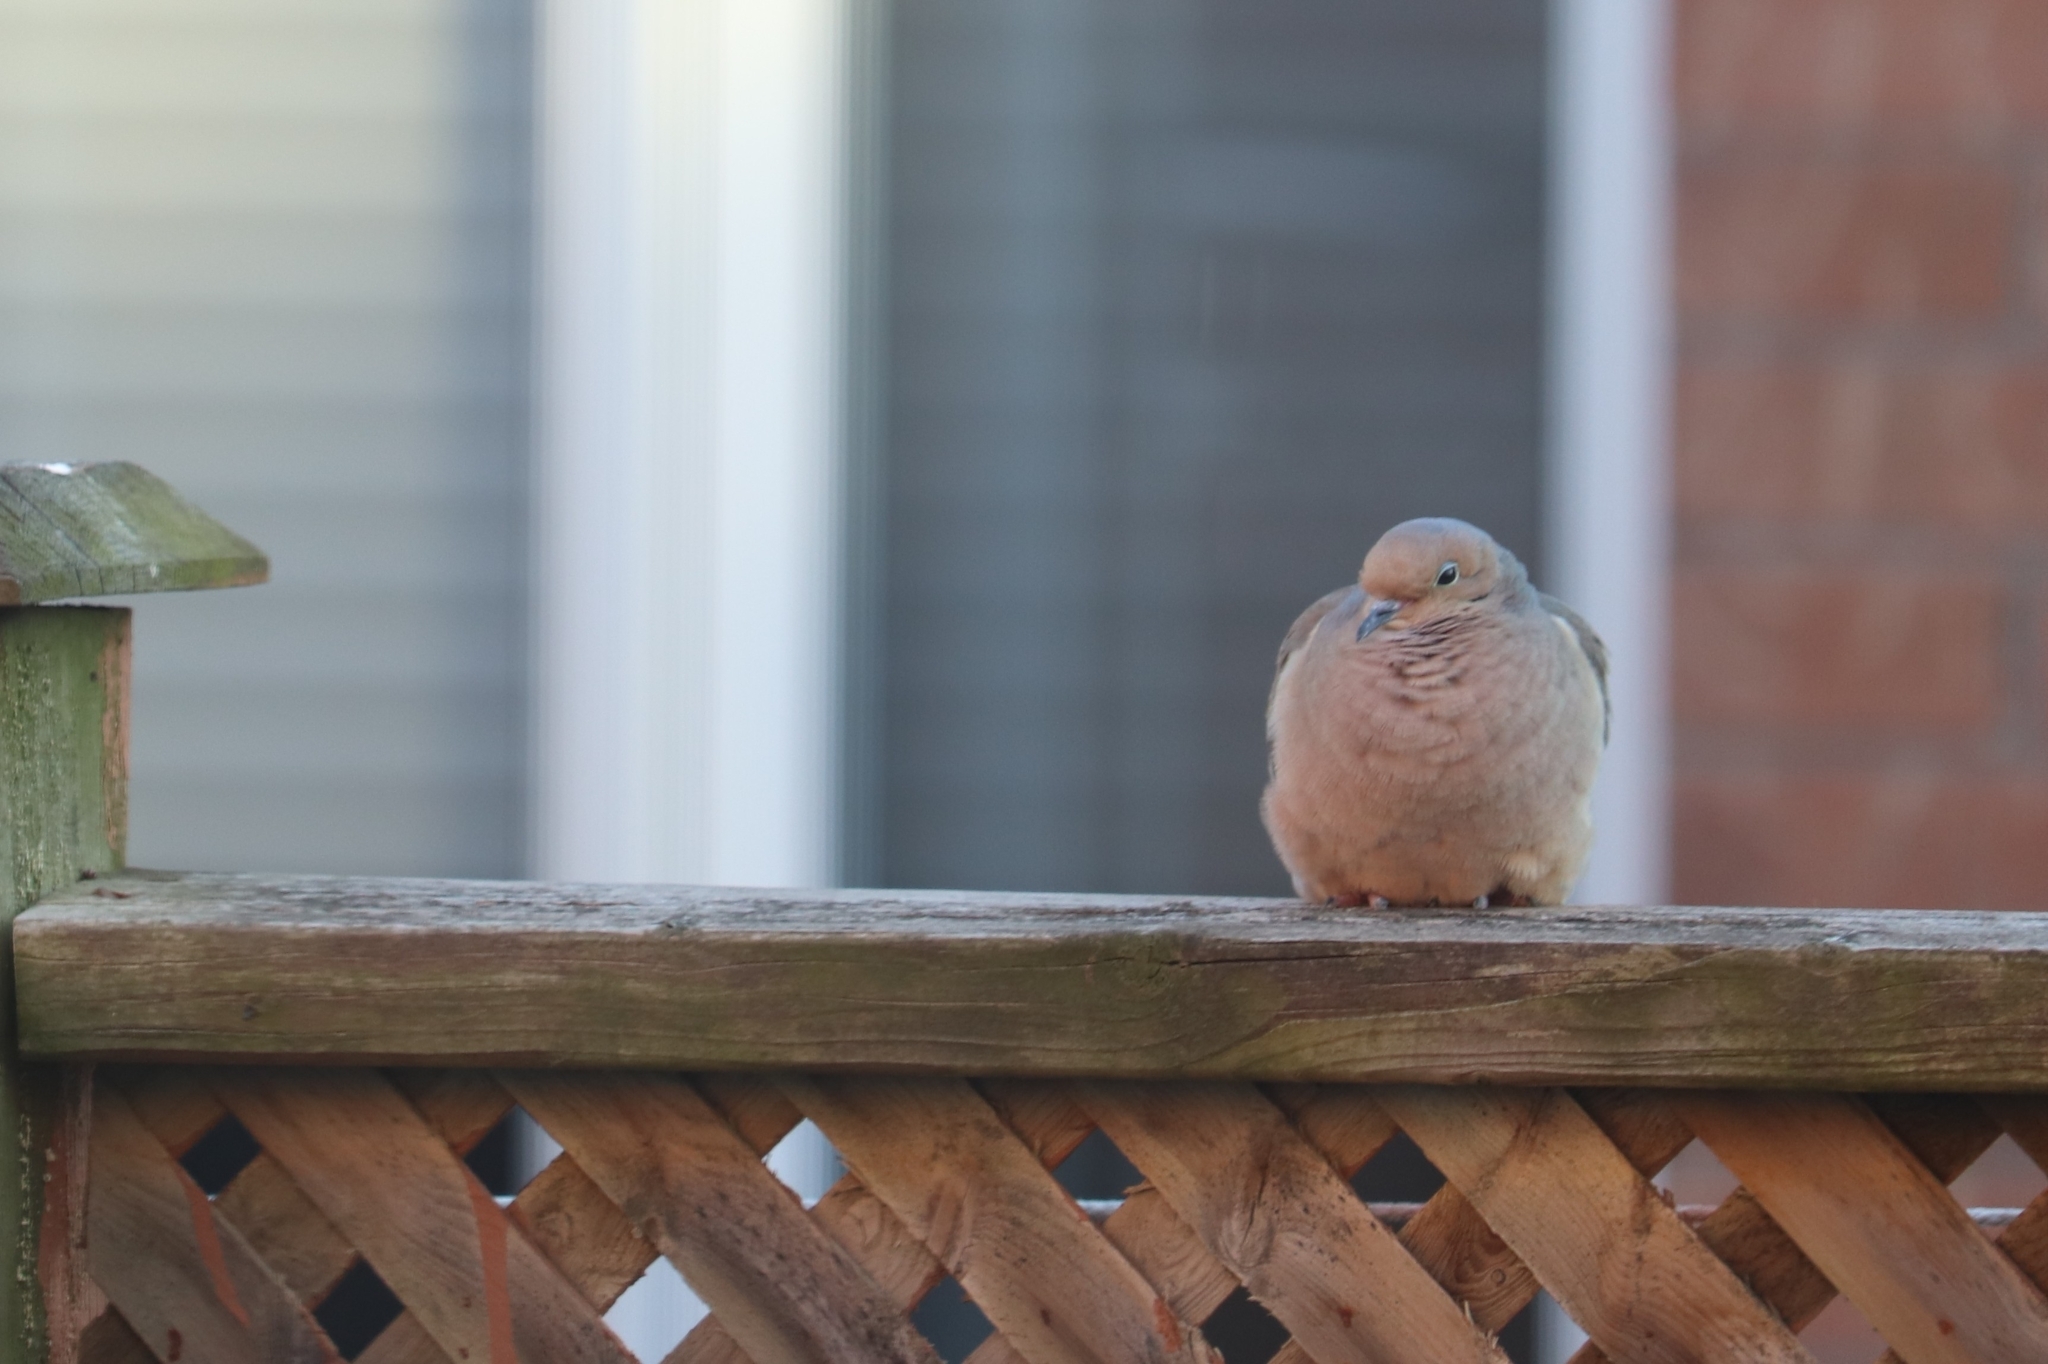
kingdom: Animalia
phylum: Chordata
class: Aves
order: Columbiformes
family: Columbidae
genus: Zenaida
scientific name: Zenaida macroura
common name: Mourning dove
